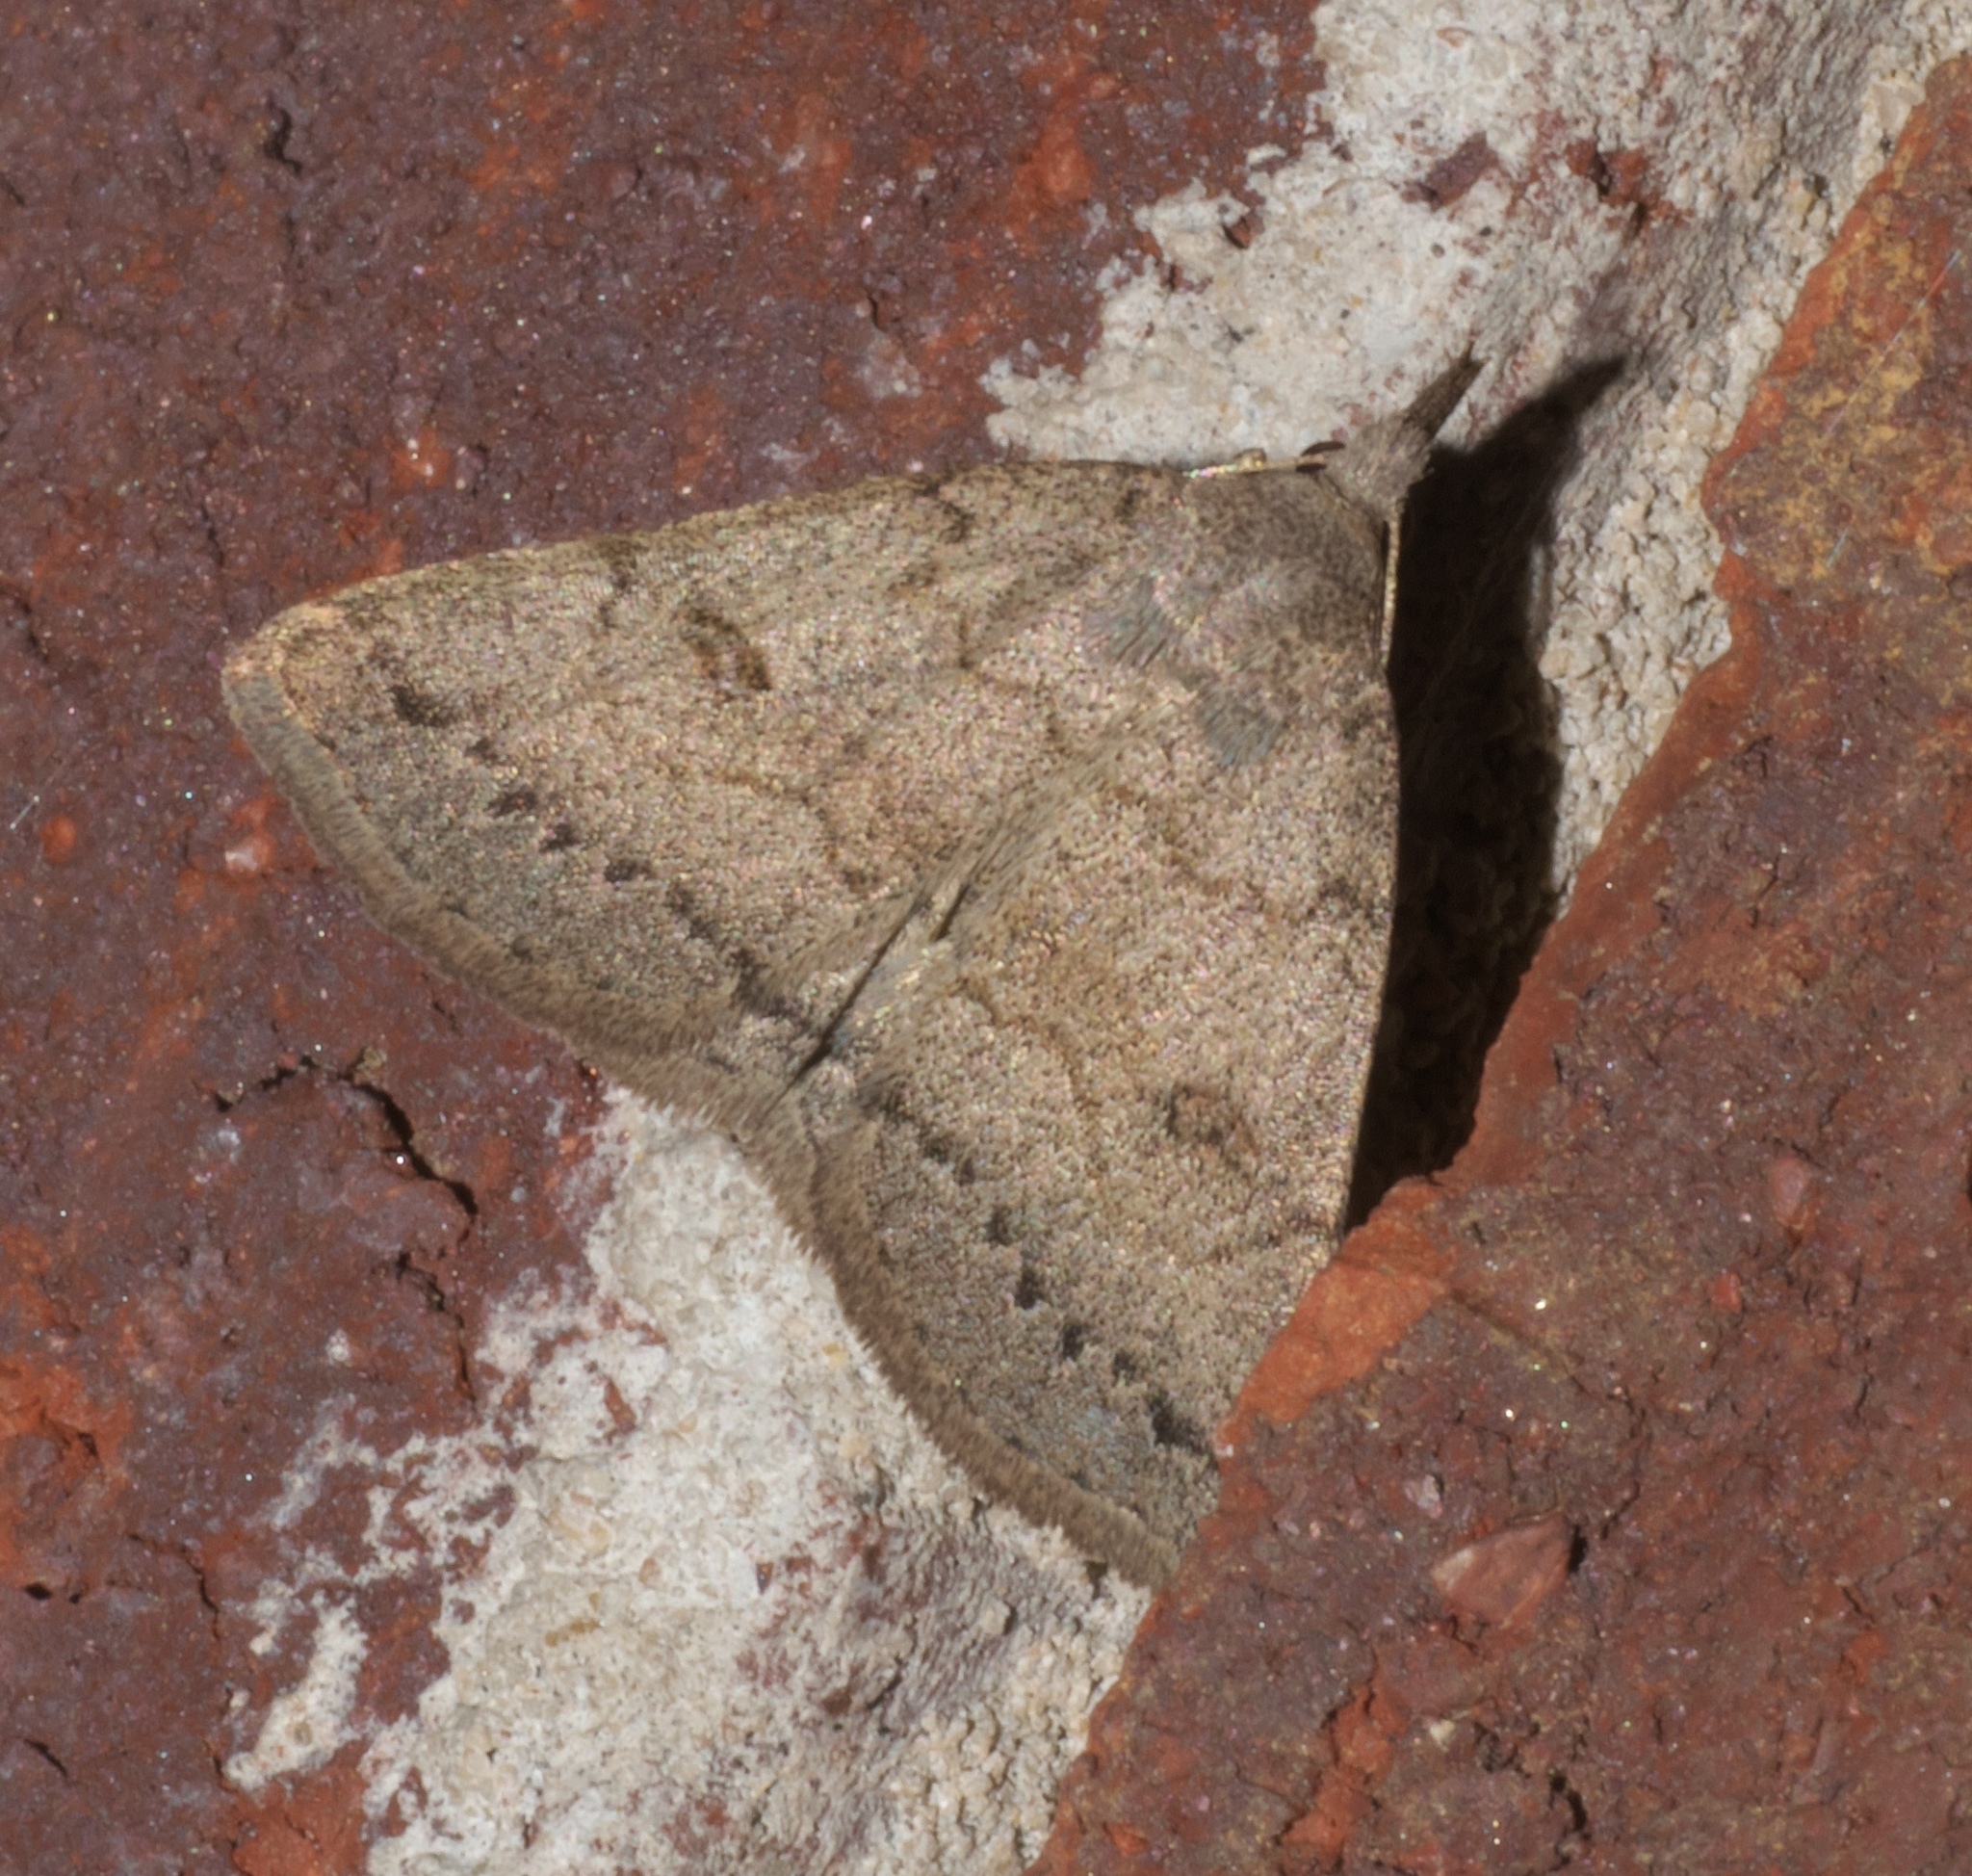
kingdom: Animalia
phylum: Arthropoda
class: Insecta
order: Lepidoptera
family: Erebidae
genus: Macrochilo
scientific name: Macrochilo morbidalis
